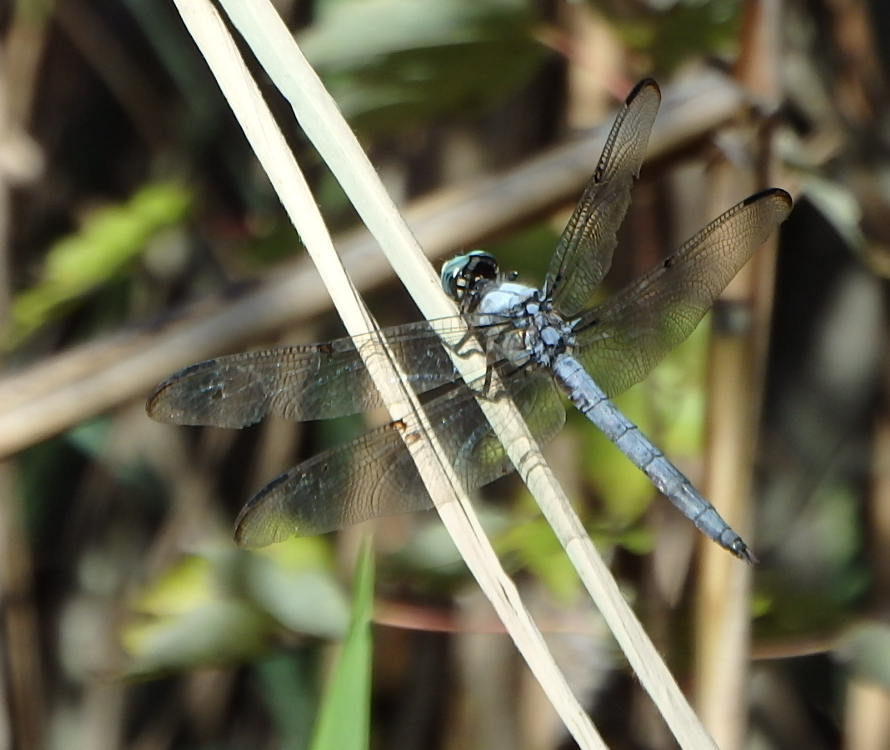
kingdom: Animalia
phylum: Arthropoda
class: Insecta
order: Odonata
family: Libellulidae
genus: Libellula
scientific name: Libellula vibrans
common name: Great blue skimmer
